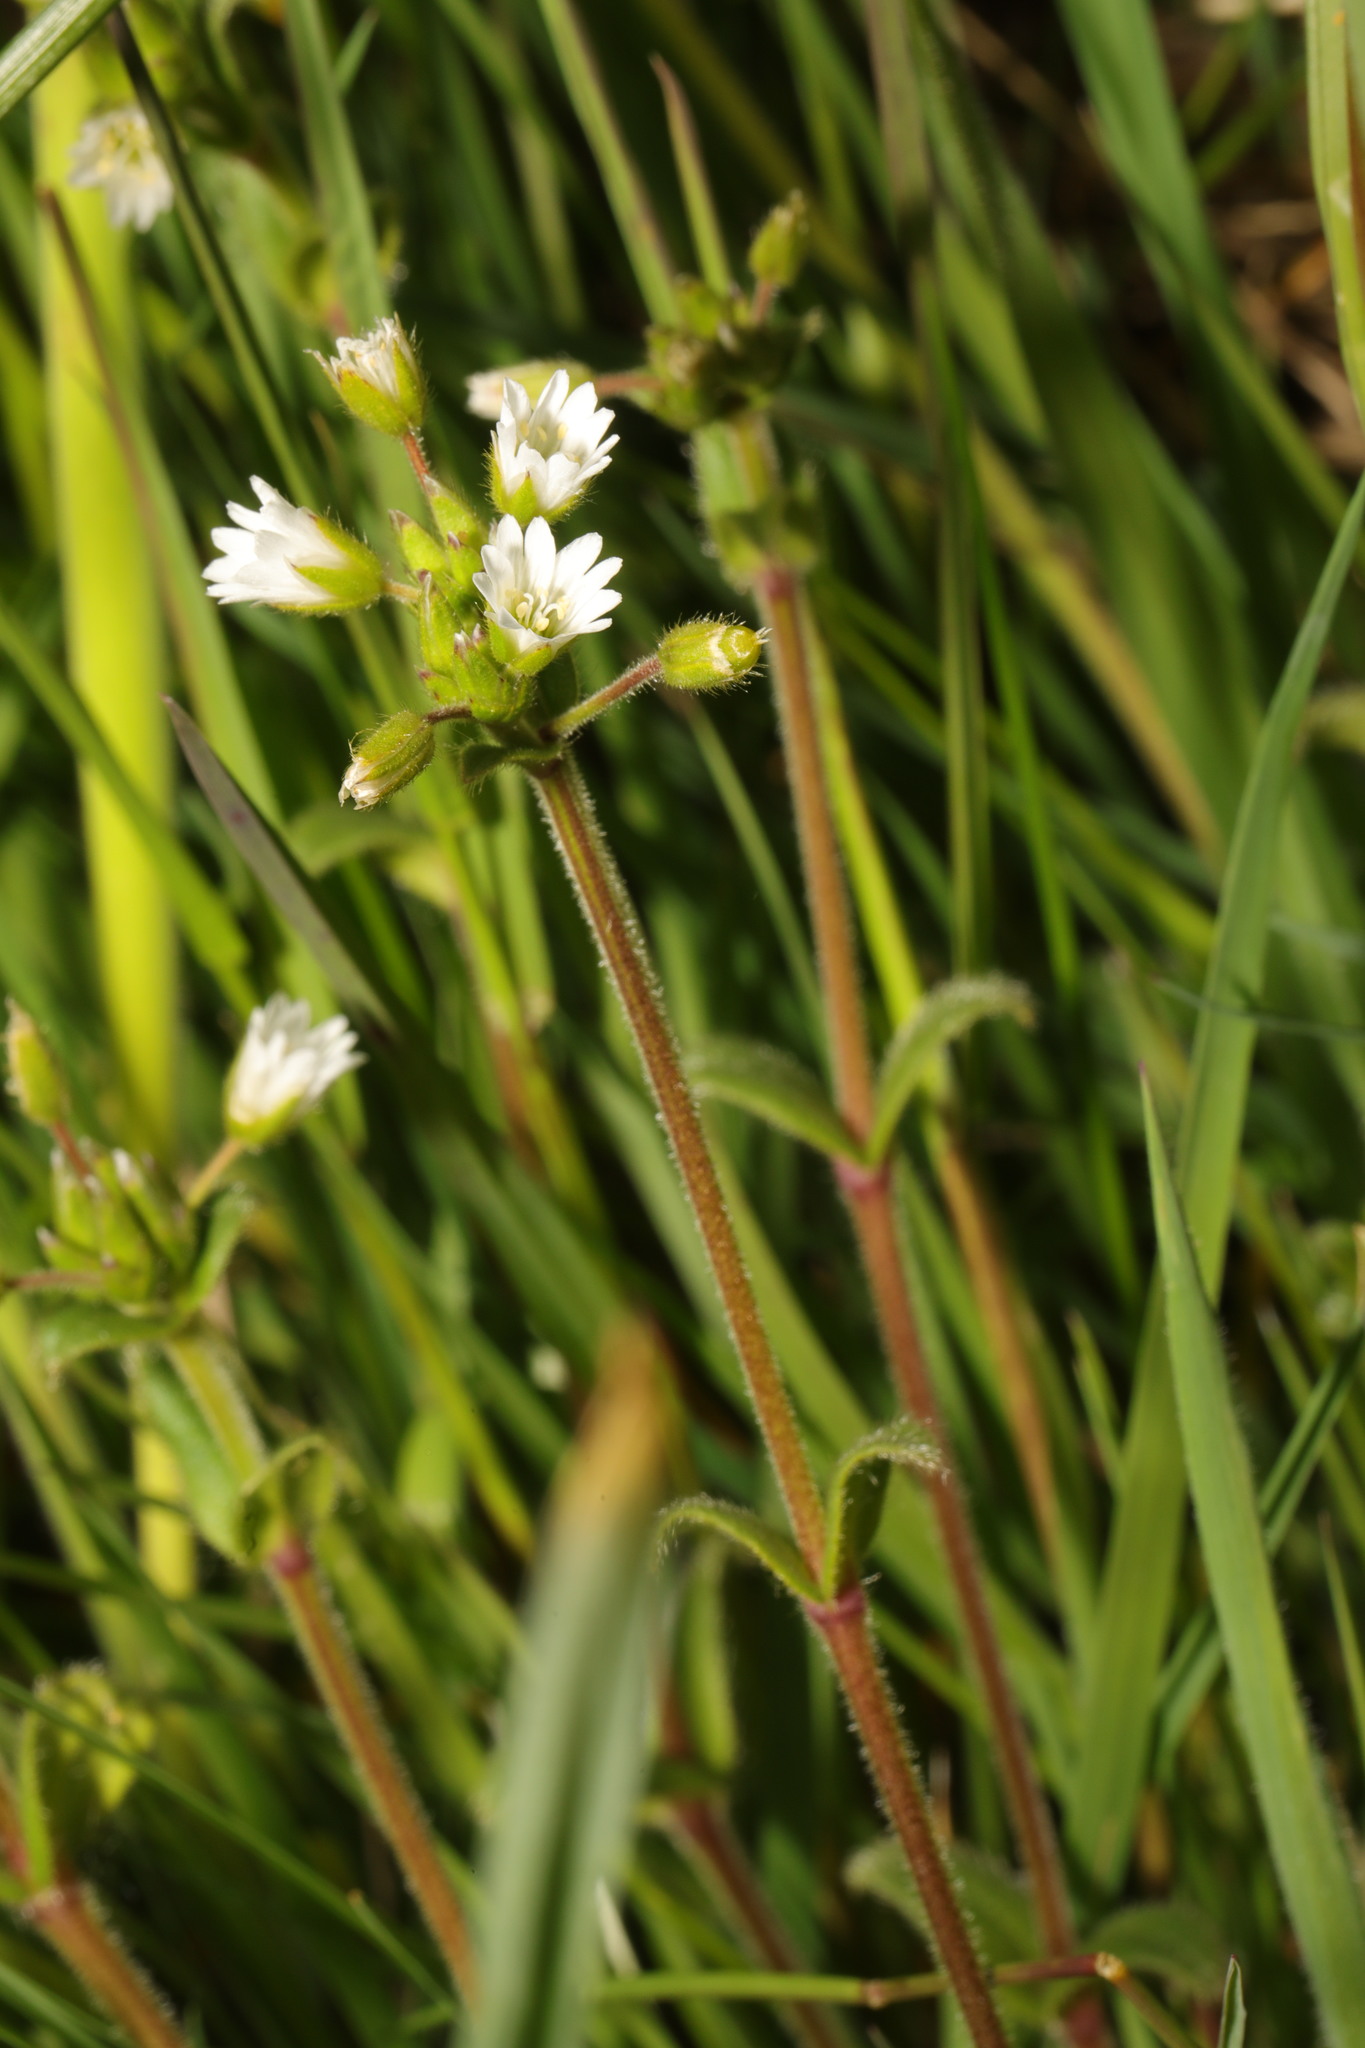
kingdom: Plantae
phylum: Tracheophyta
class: Magnoliopsida
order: Caryophyllales
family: Caryophyllaceae
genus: Cerastium
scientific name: Cerastium fontanum
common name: Common mouse-ear
